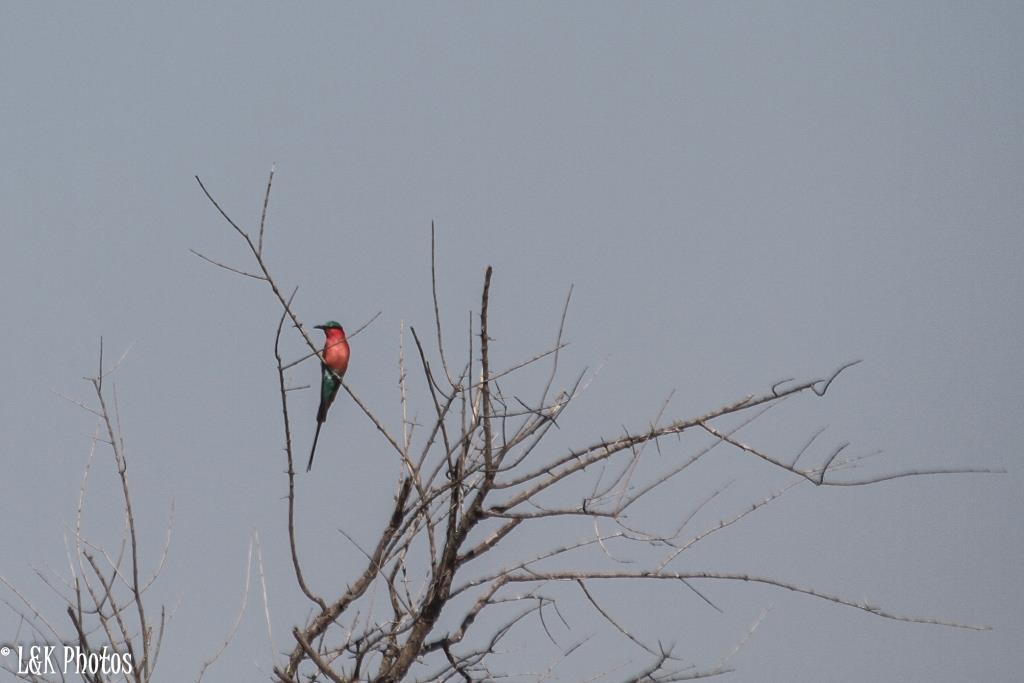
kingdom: Animalia
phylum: Chordata
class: Aves
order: Coraciiformes
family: Meropidae
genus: Merops
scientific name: Merops nubicoides
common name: Southern carmine bee-eater
